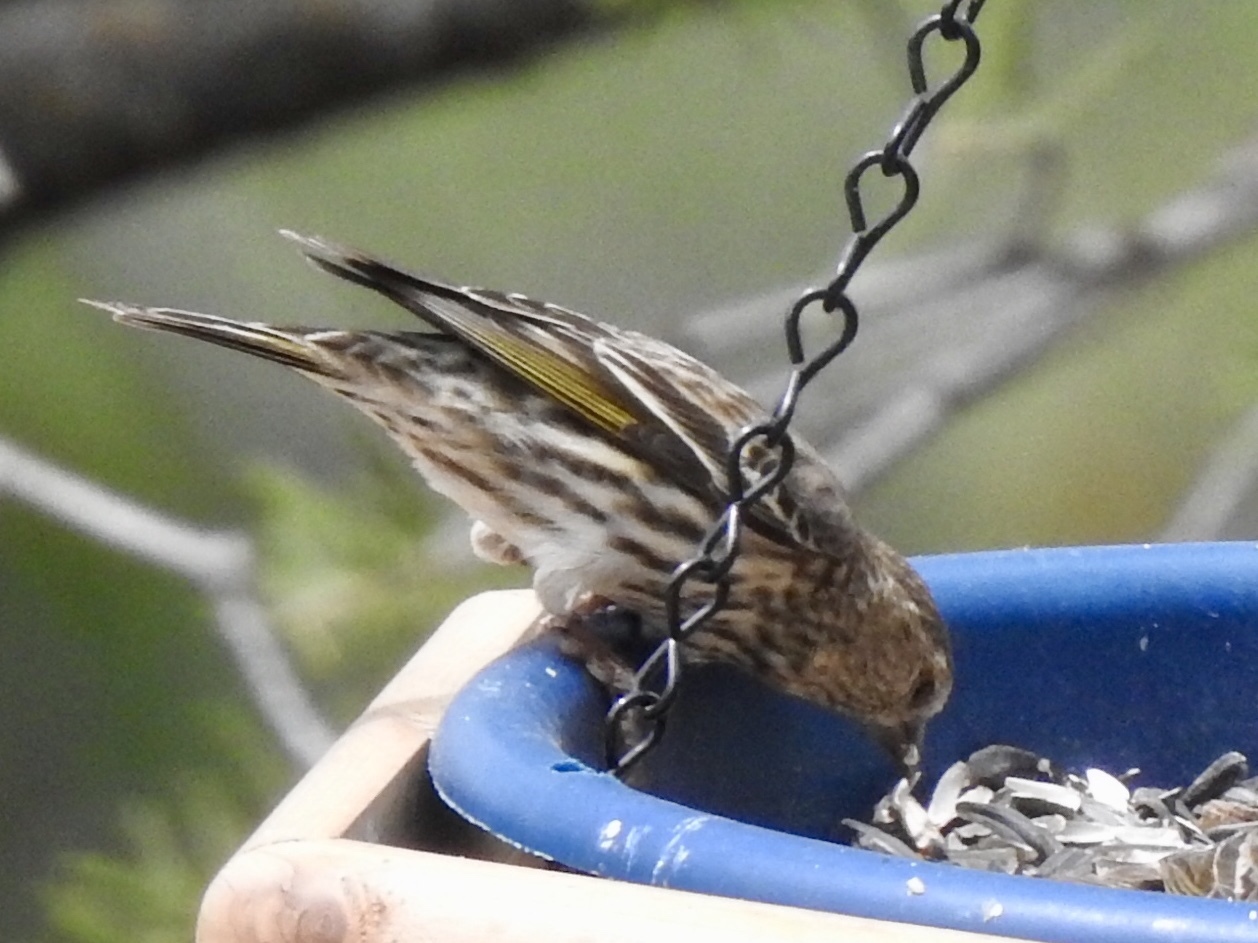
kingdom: Animalia
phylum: Chordata
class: Aves
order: Passeriformes
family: Fringillidae
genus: Spinus
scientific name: Spinus pinus
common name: Pine siskin
